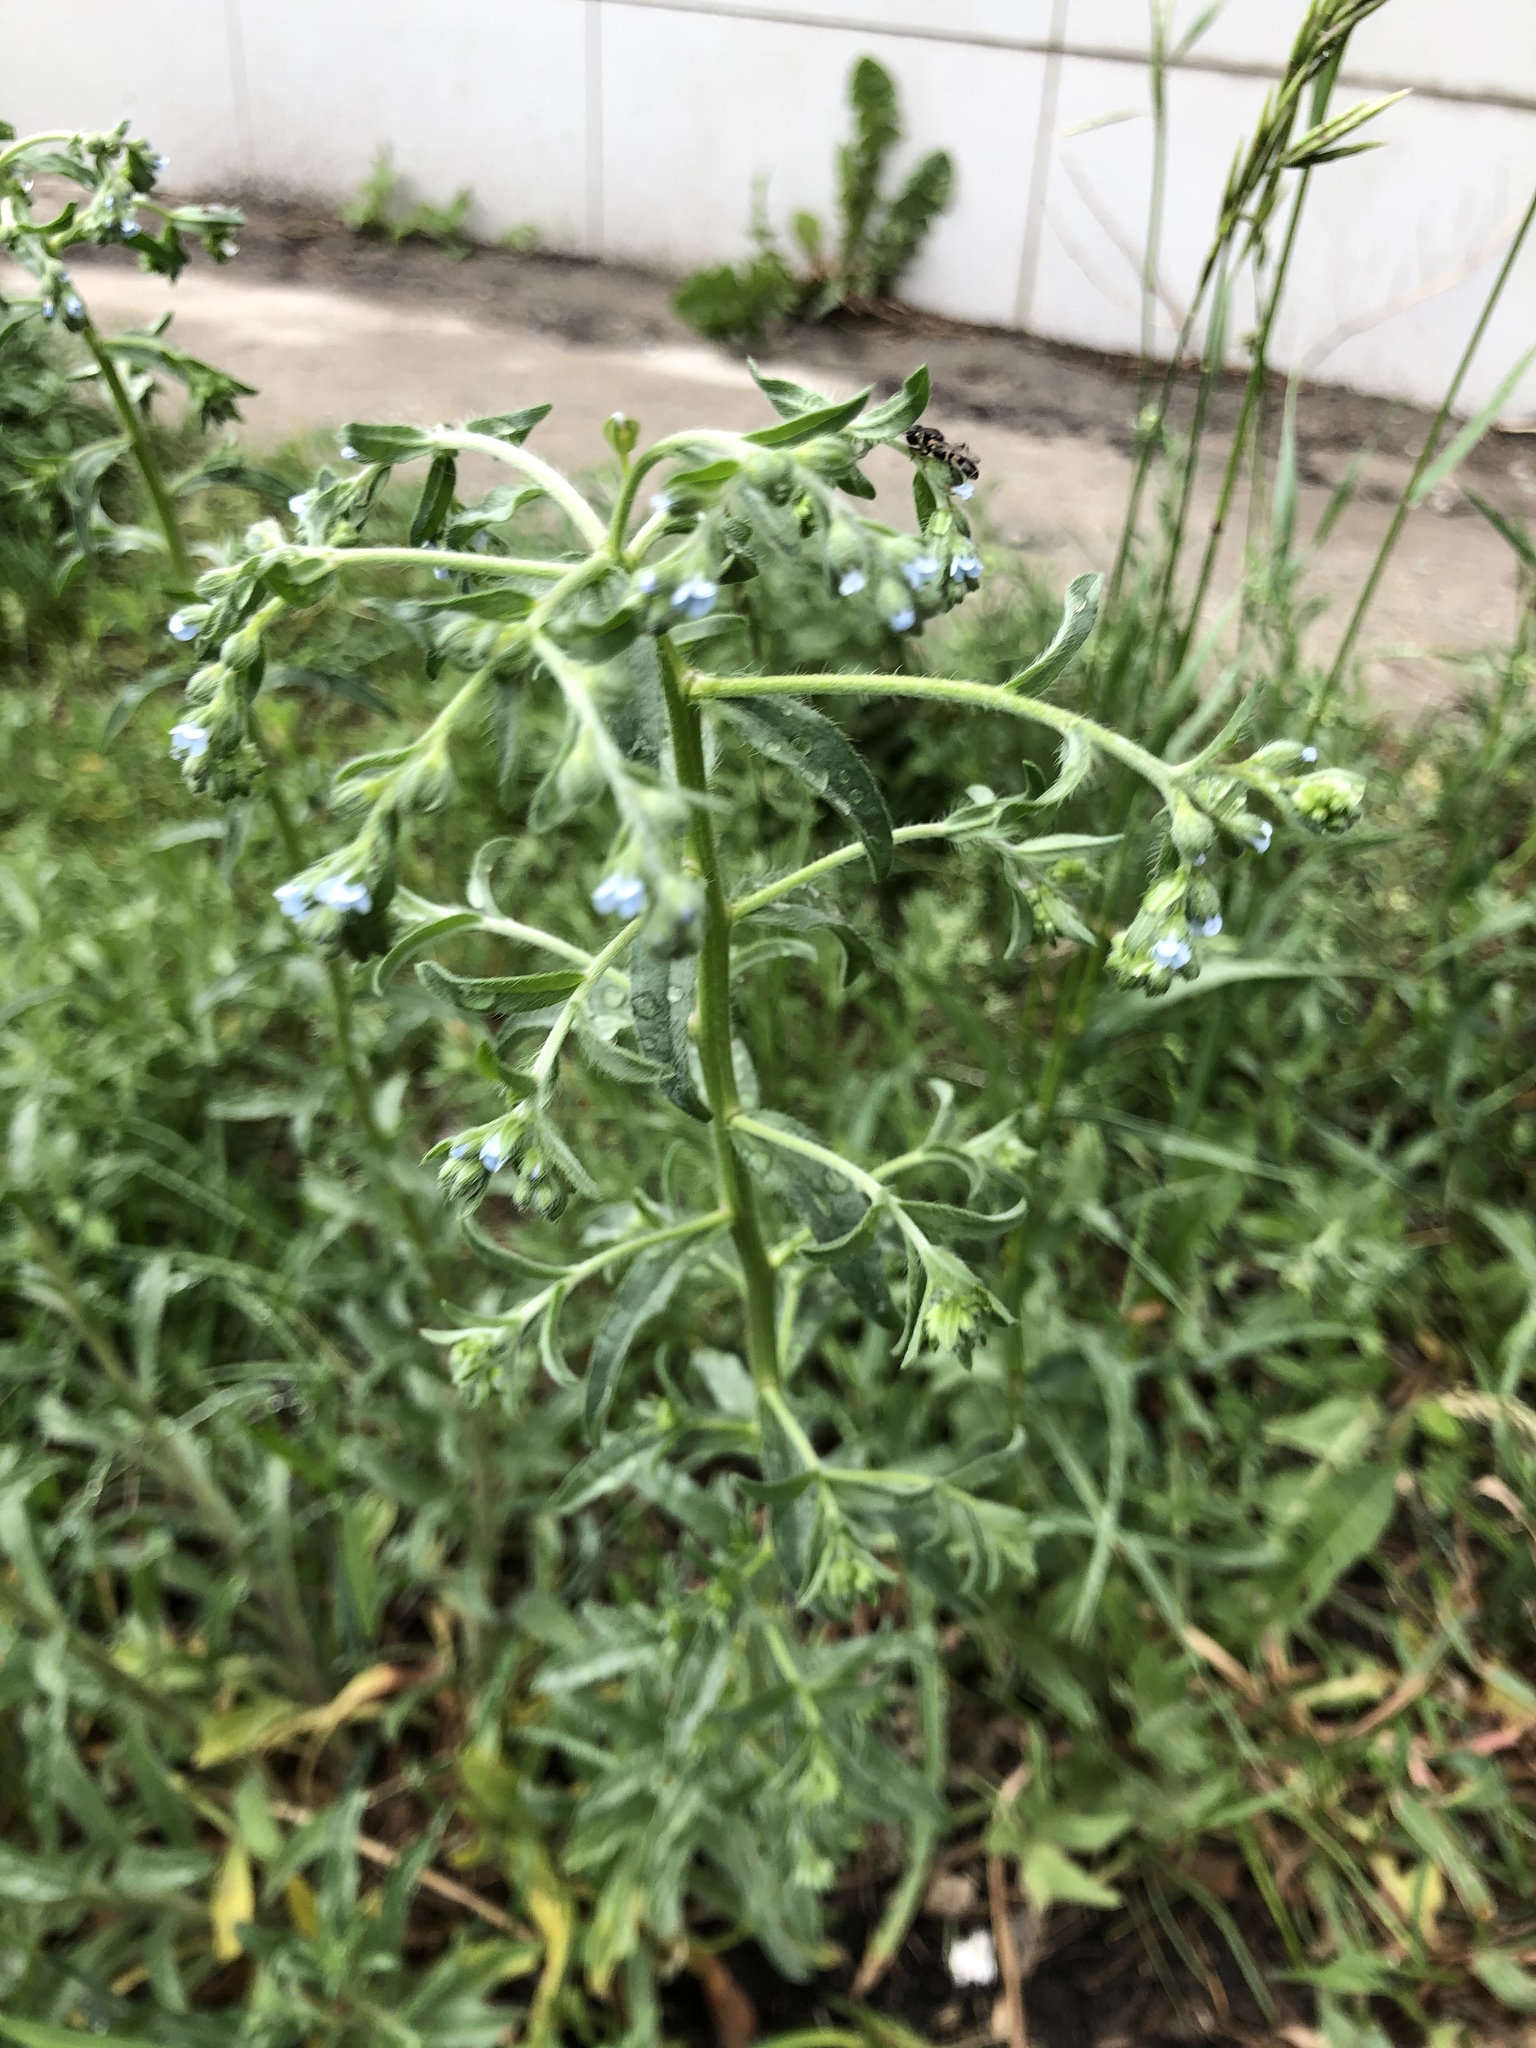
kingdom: Plantae
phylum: Tracheophyta
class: Magnoliopsida
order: Boraginales
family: Boraginaceae
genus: Lappula
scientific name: Lappula squarrosa
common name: European stickseed
